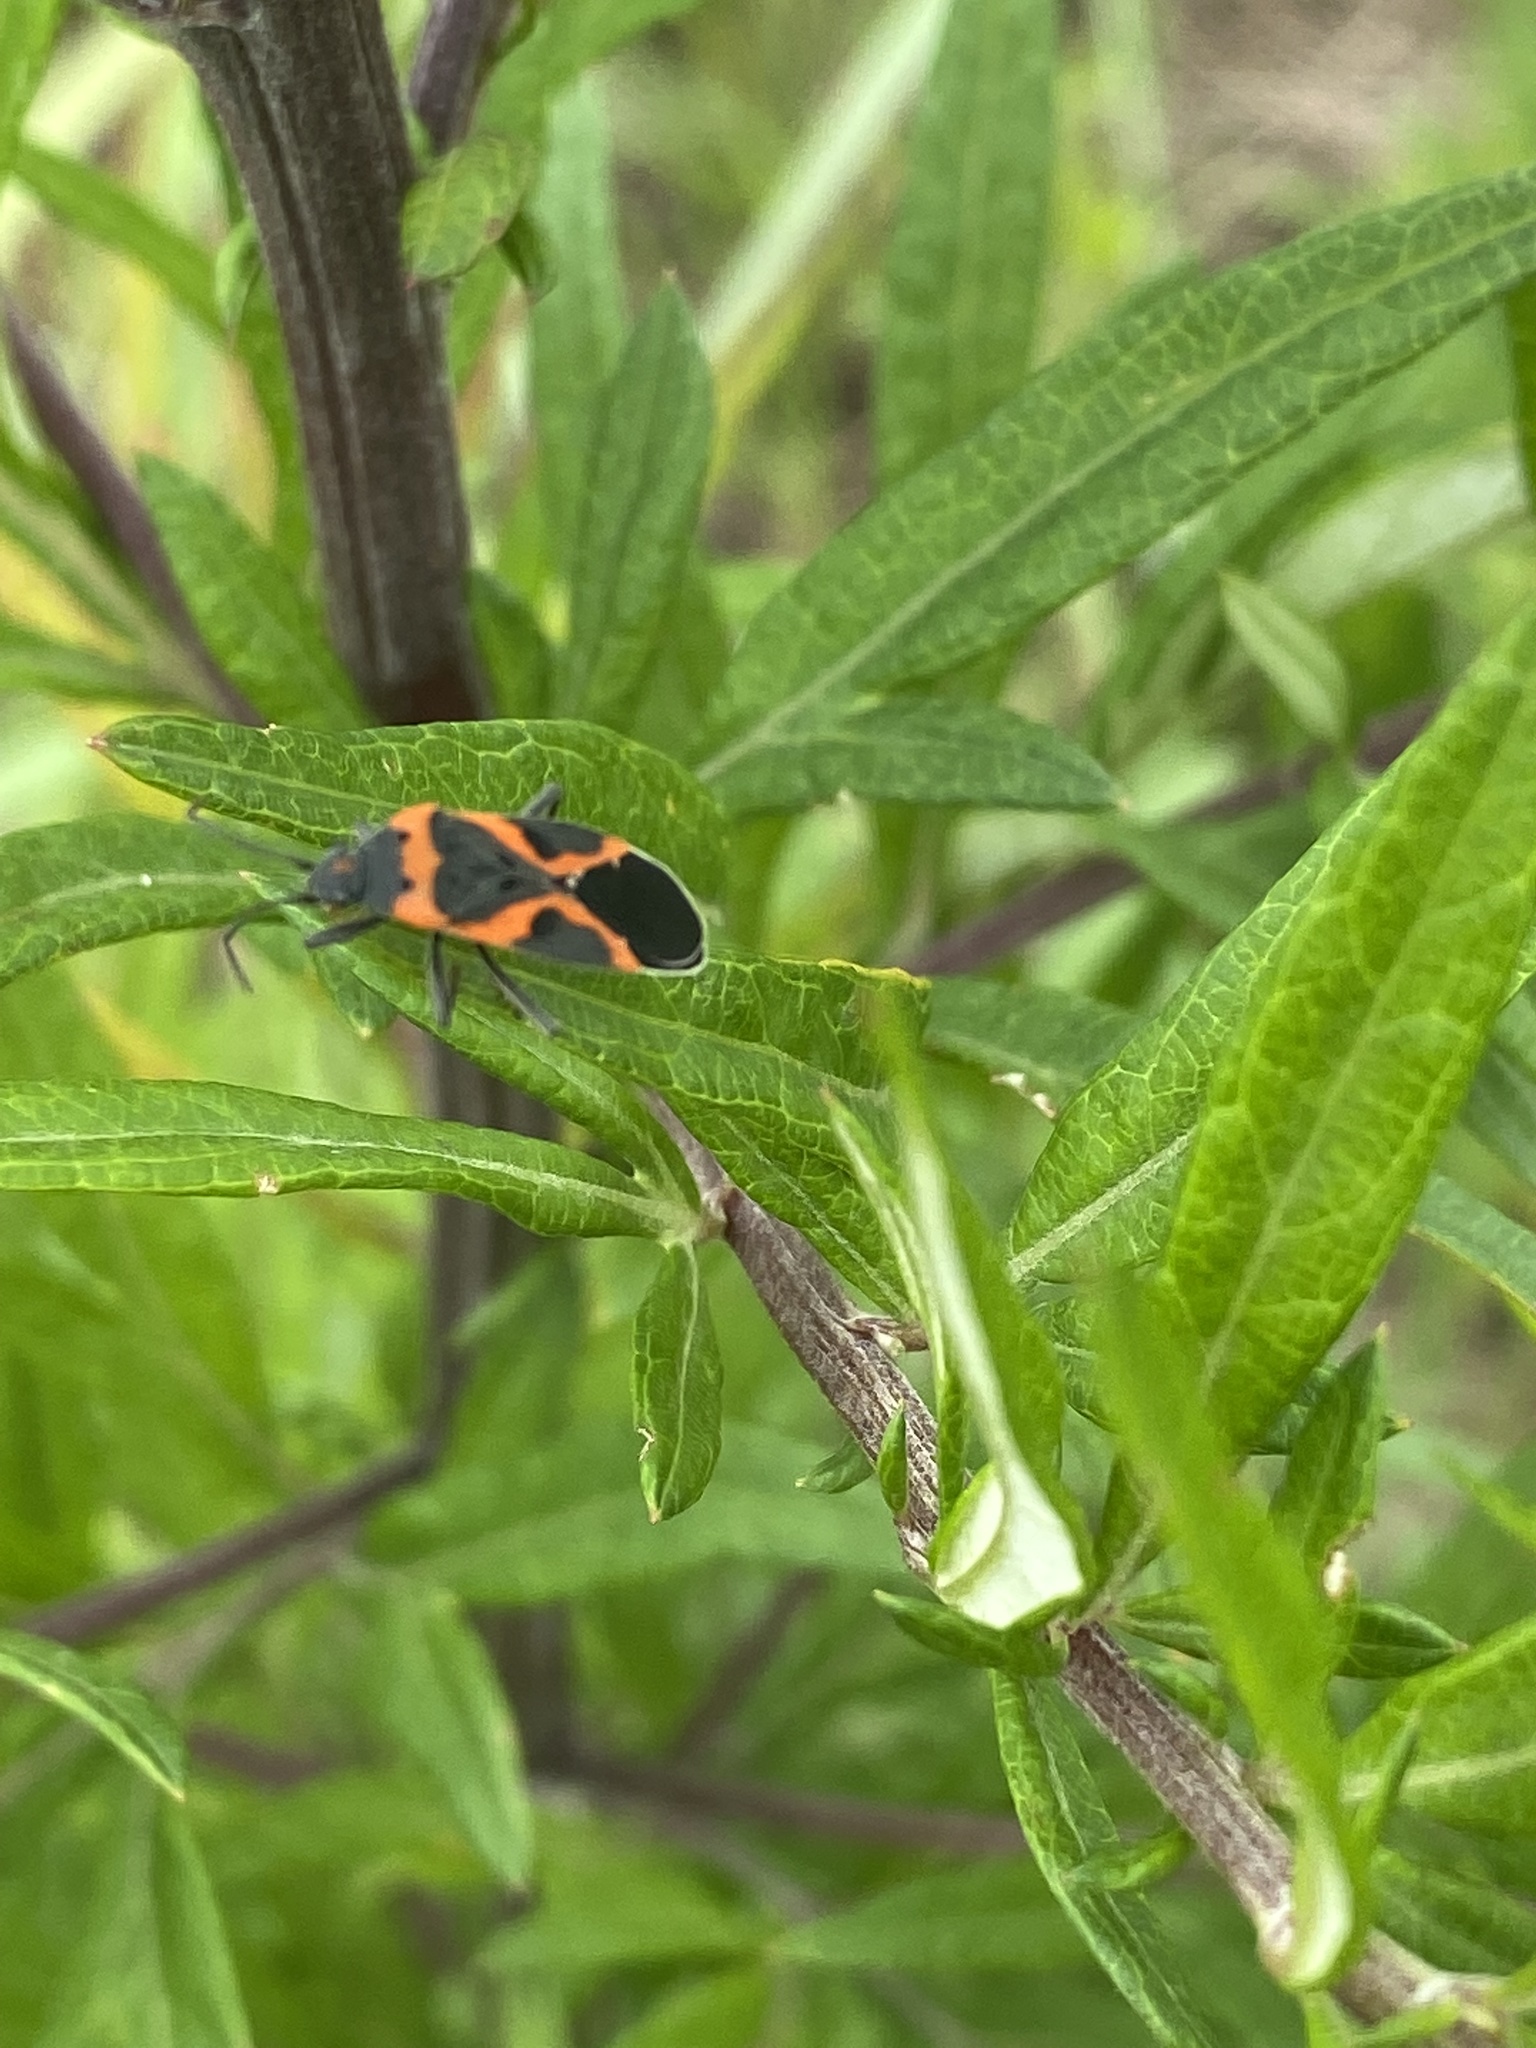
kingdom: Animalia
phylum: Arthropoda
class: Insecta
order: Hemiptera
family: Lygaeidae
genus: Lygaeus
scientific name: Lygaeus kalmii
